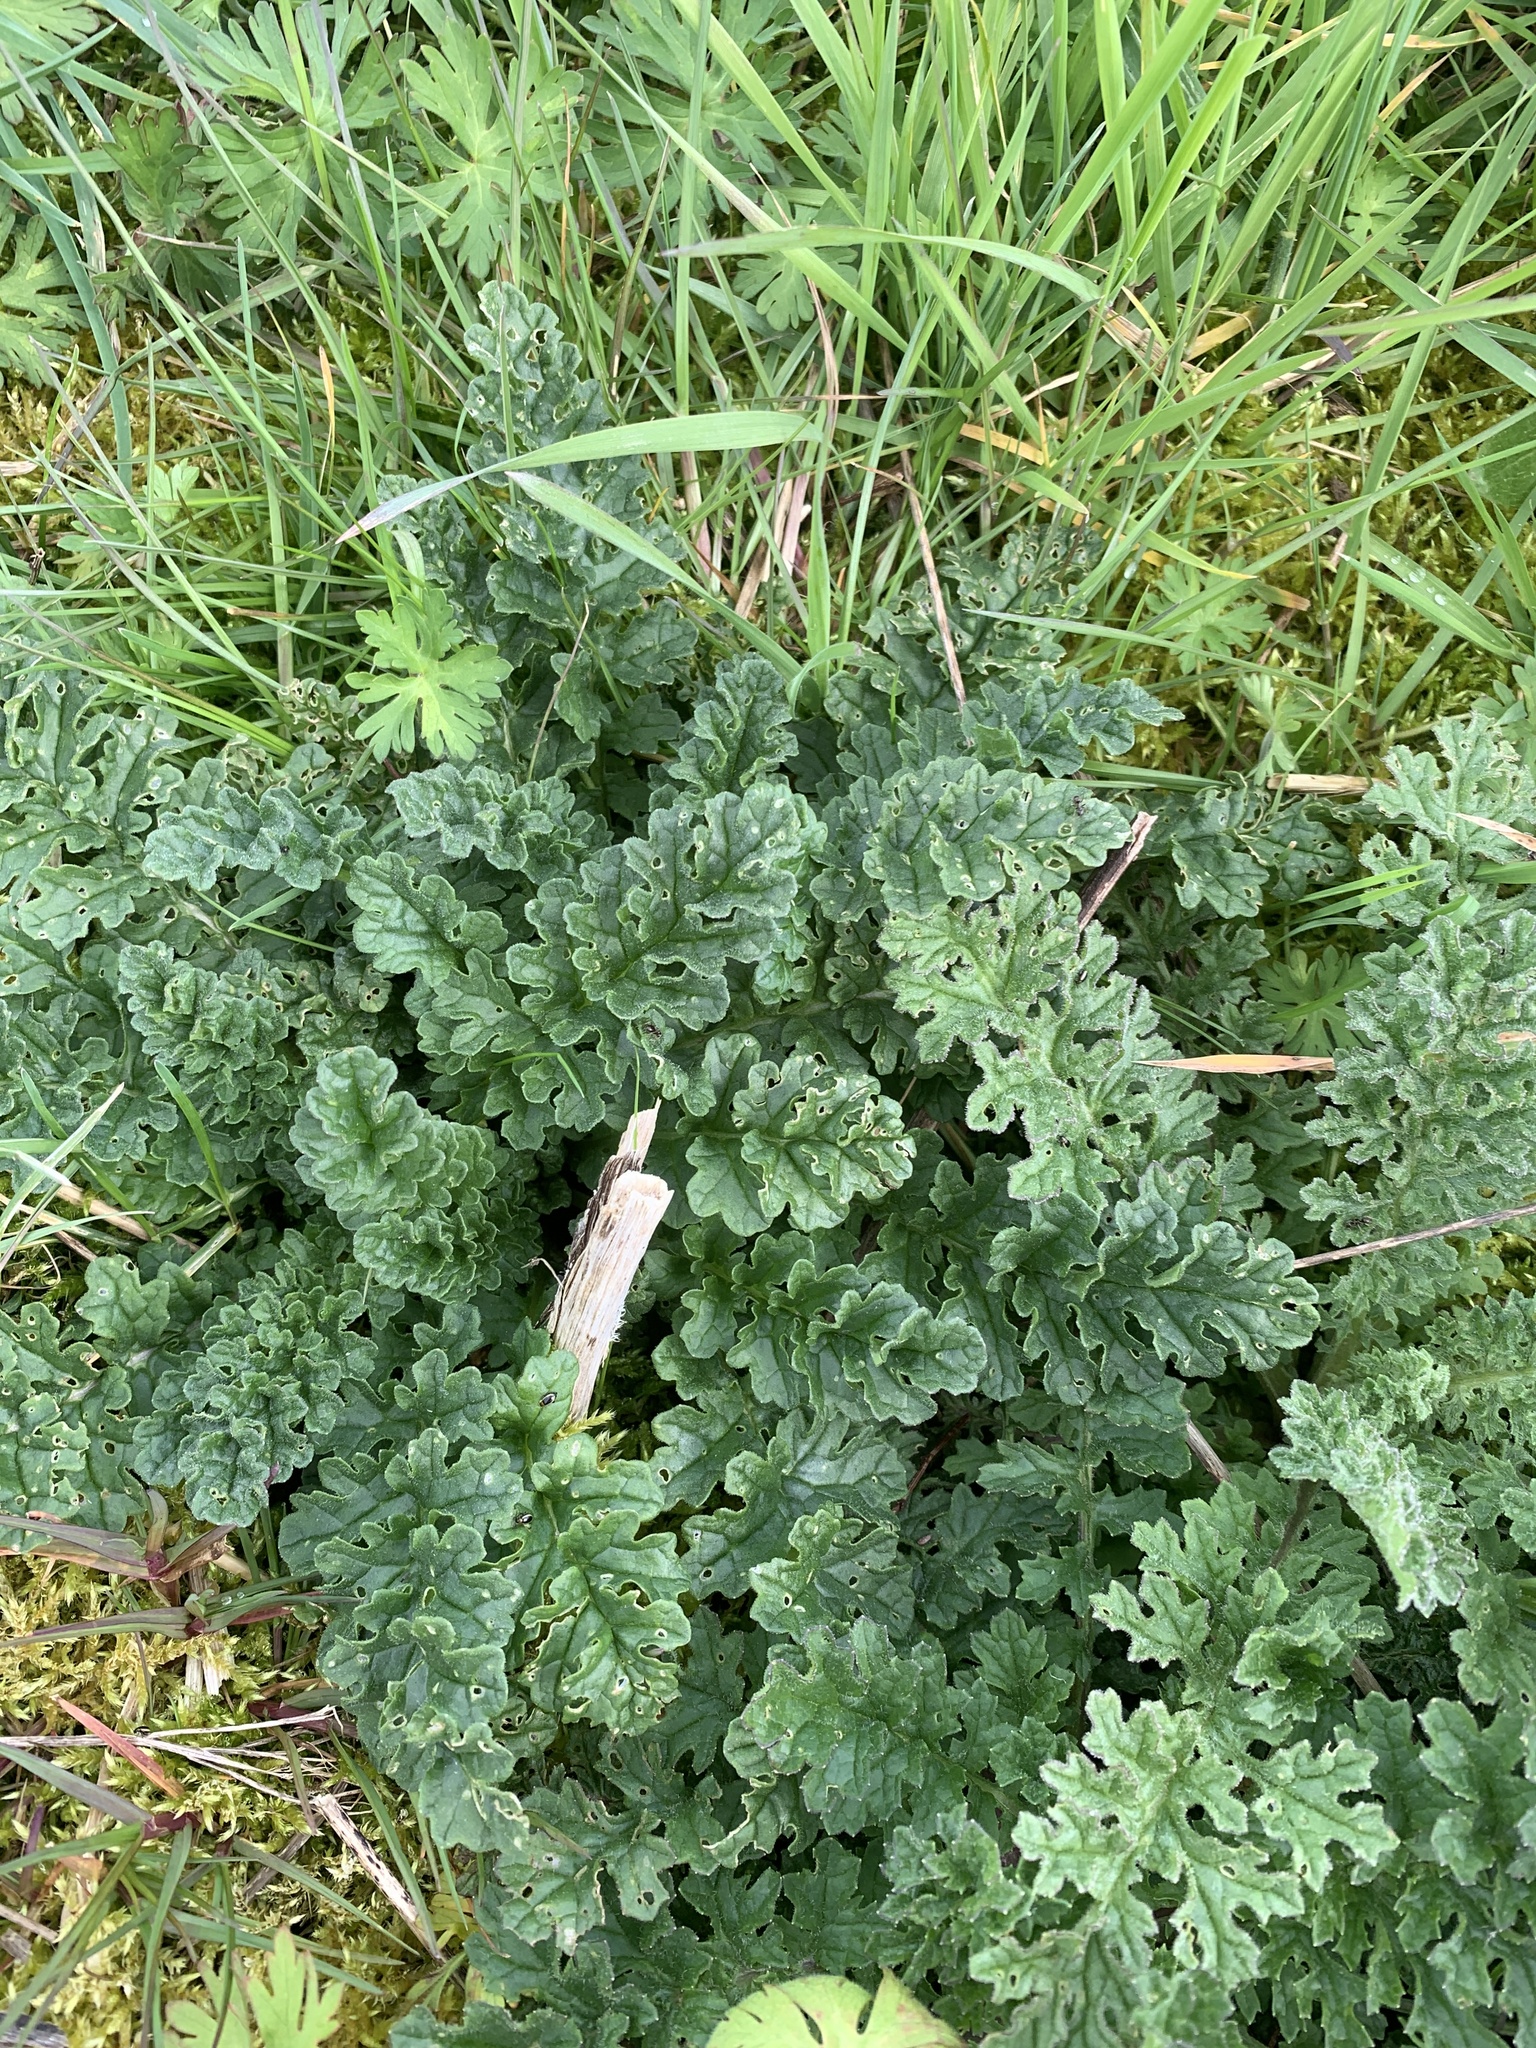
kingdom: Plantae
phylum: Tracheophyta
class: Magnoliopsida
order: Asterales
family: Asteraceae
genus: Jacobaea
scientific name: Jacobaea vulgaris
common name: Stinking willie
